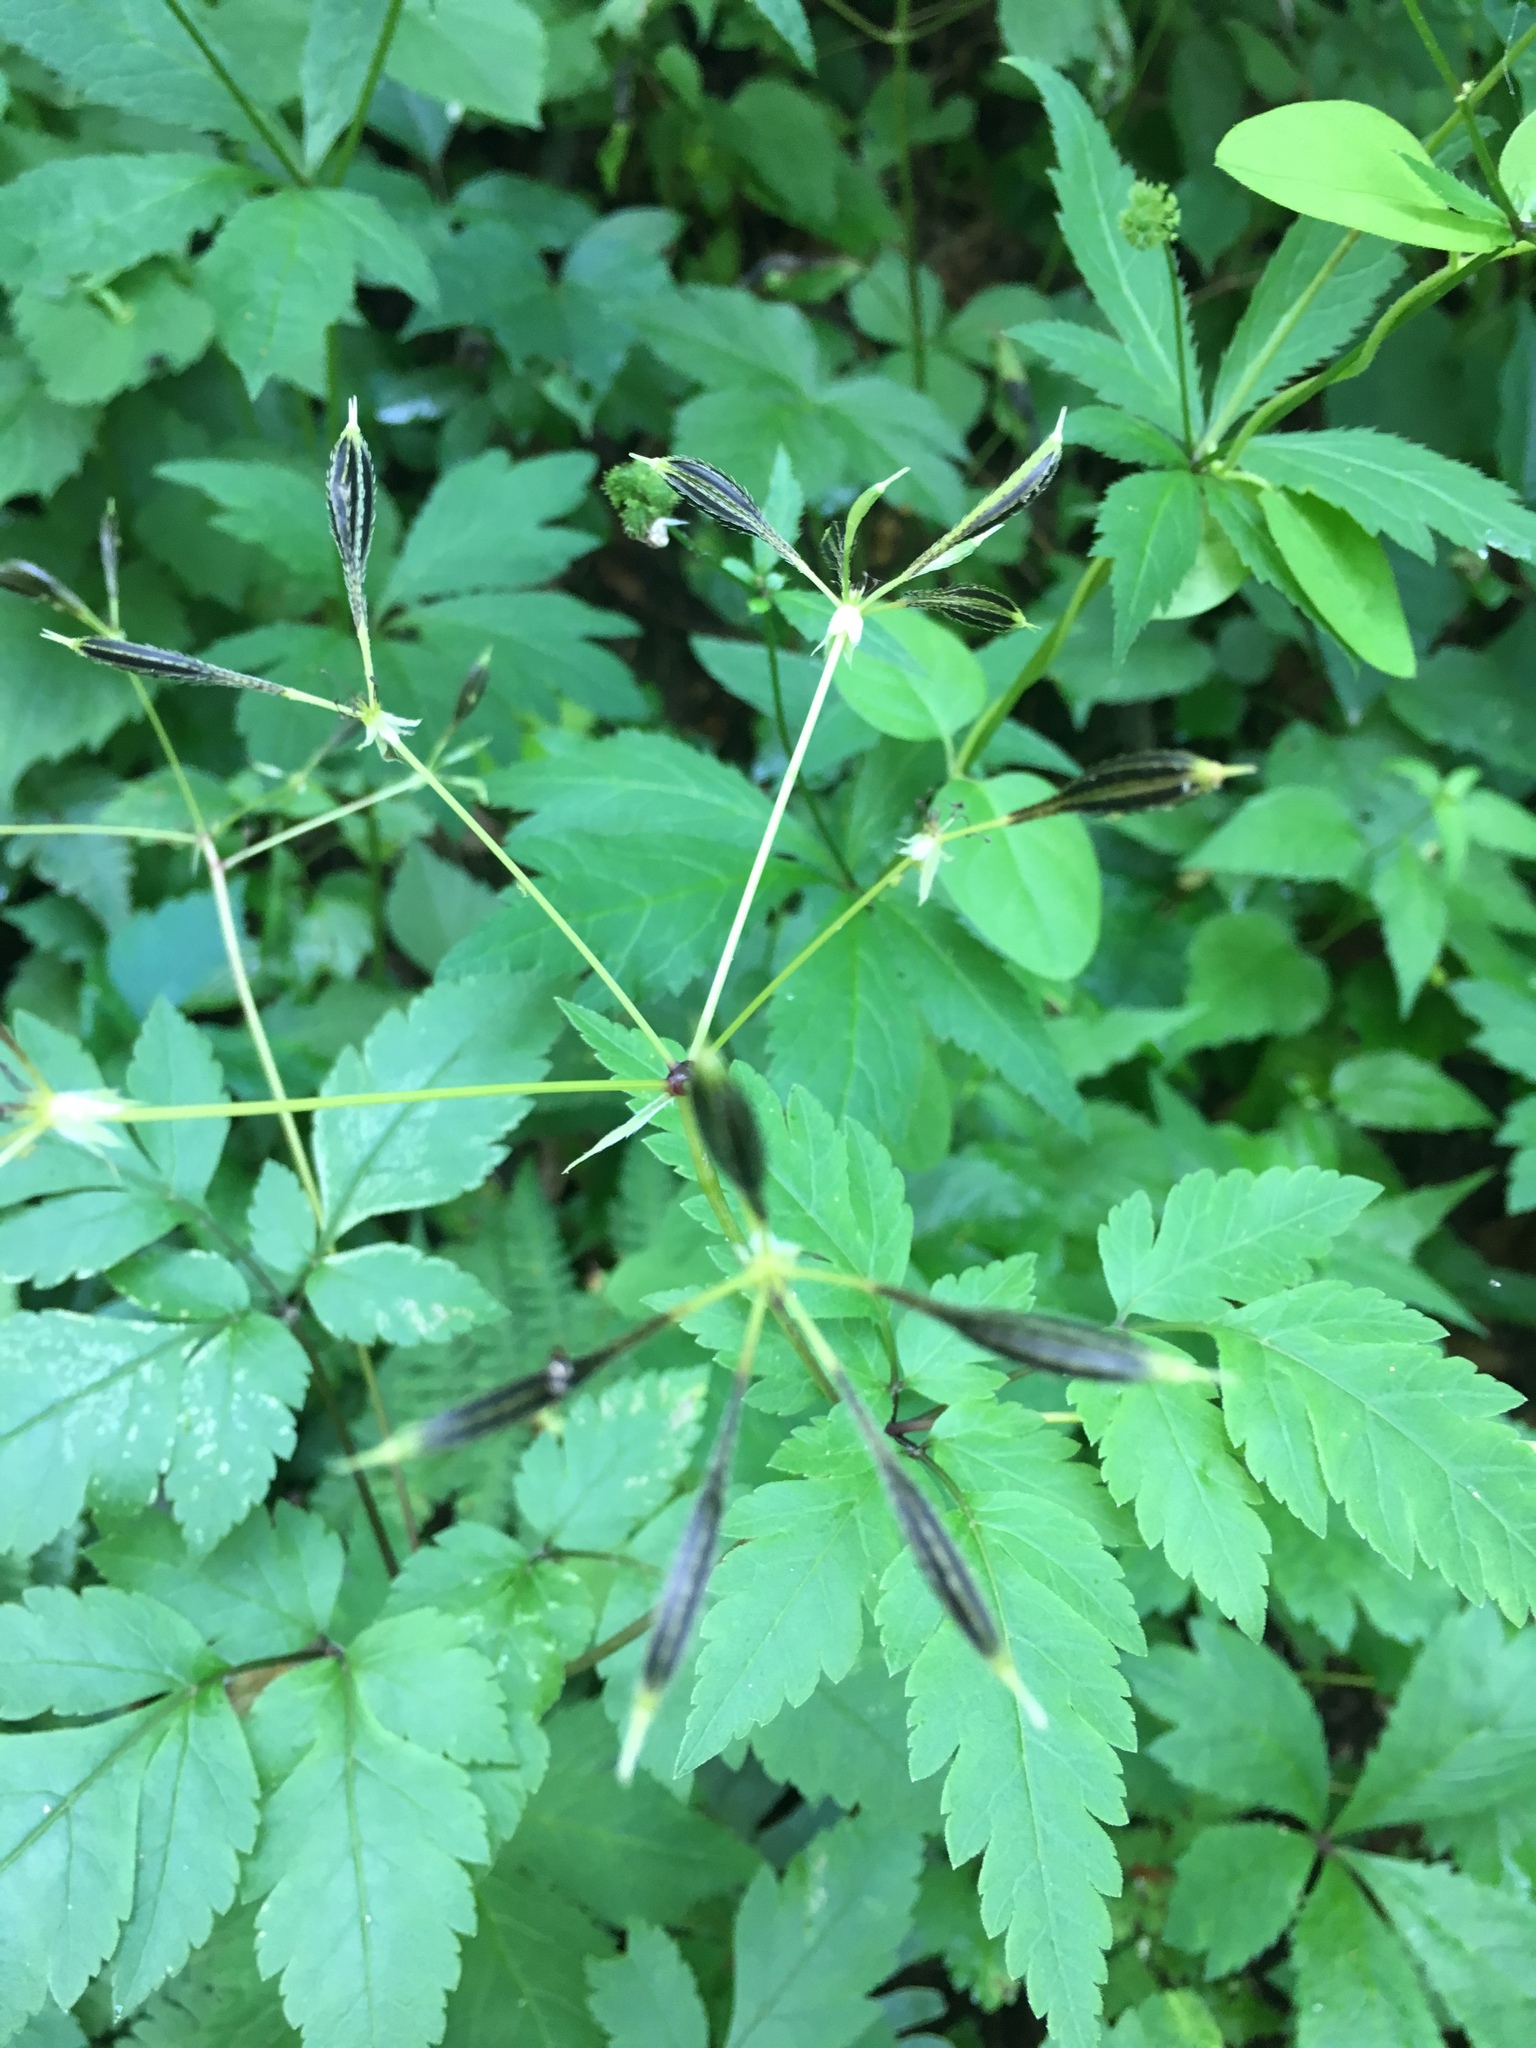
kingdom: Plantae
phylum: Tracheophyta
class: Magnoliopsida
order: Apiales
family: Apiaceae
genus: Cryptotaenia
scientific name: Cryptotaenia canadensis
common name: Honewort
